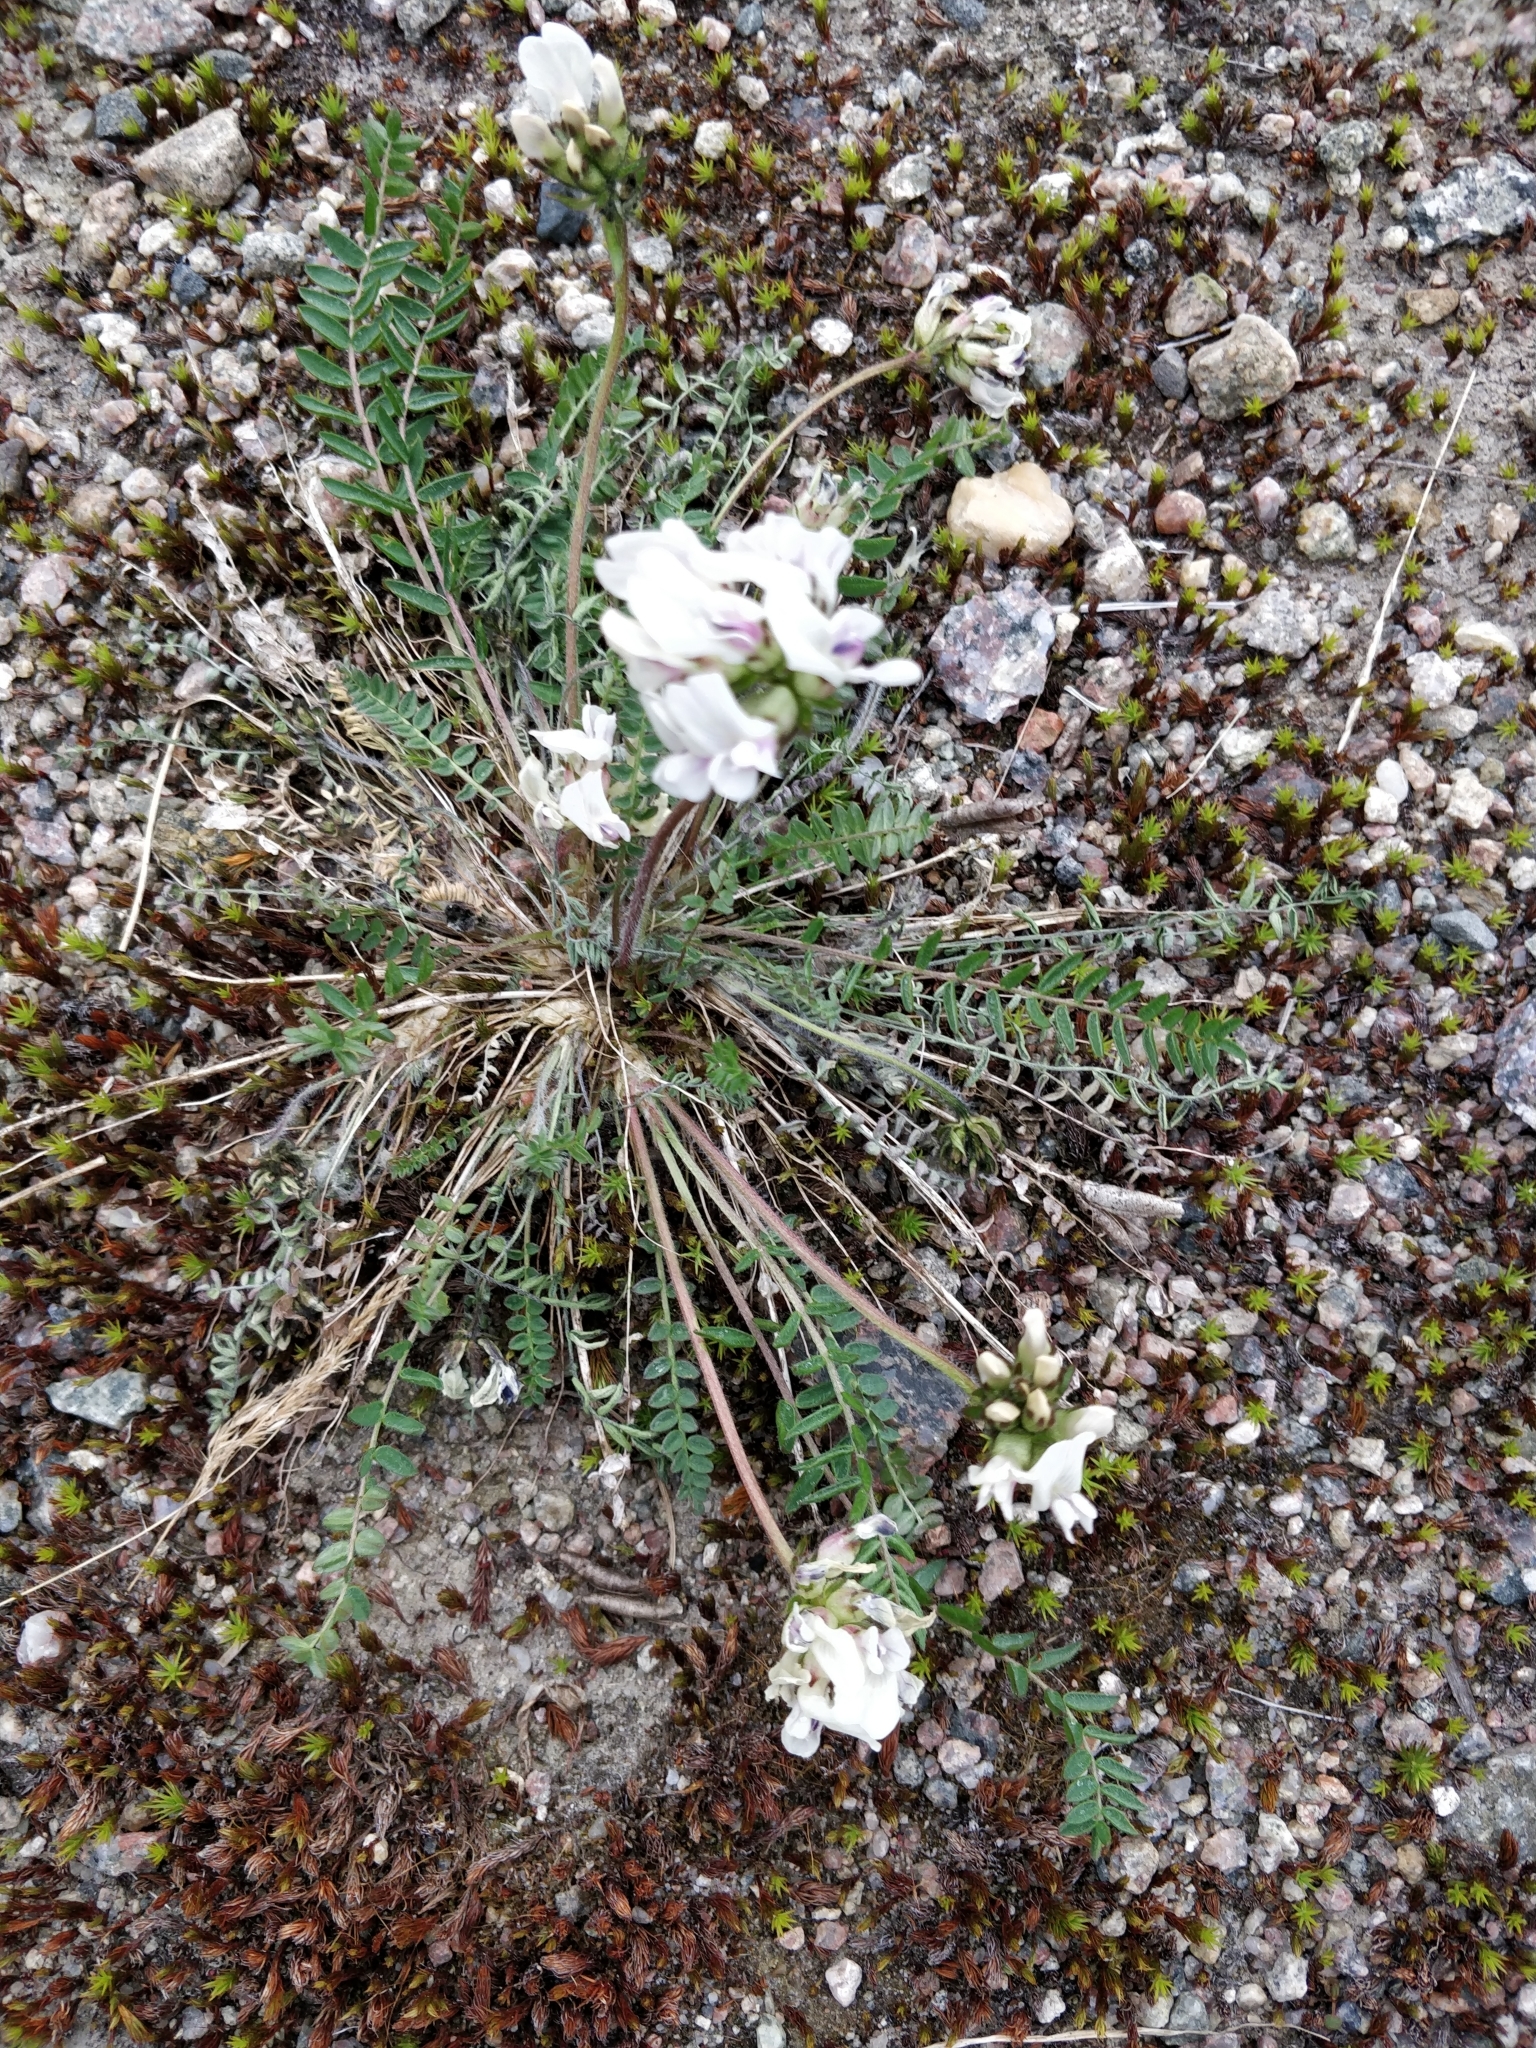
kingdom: Plantae
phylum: Tracheophyta
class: Magnoliopsida
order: Fabales
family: Fabaceae
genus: Oxytropis
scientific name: Oxytropis sordida
